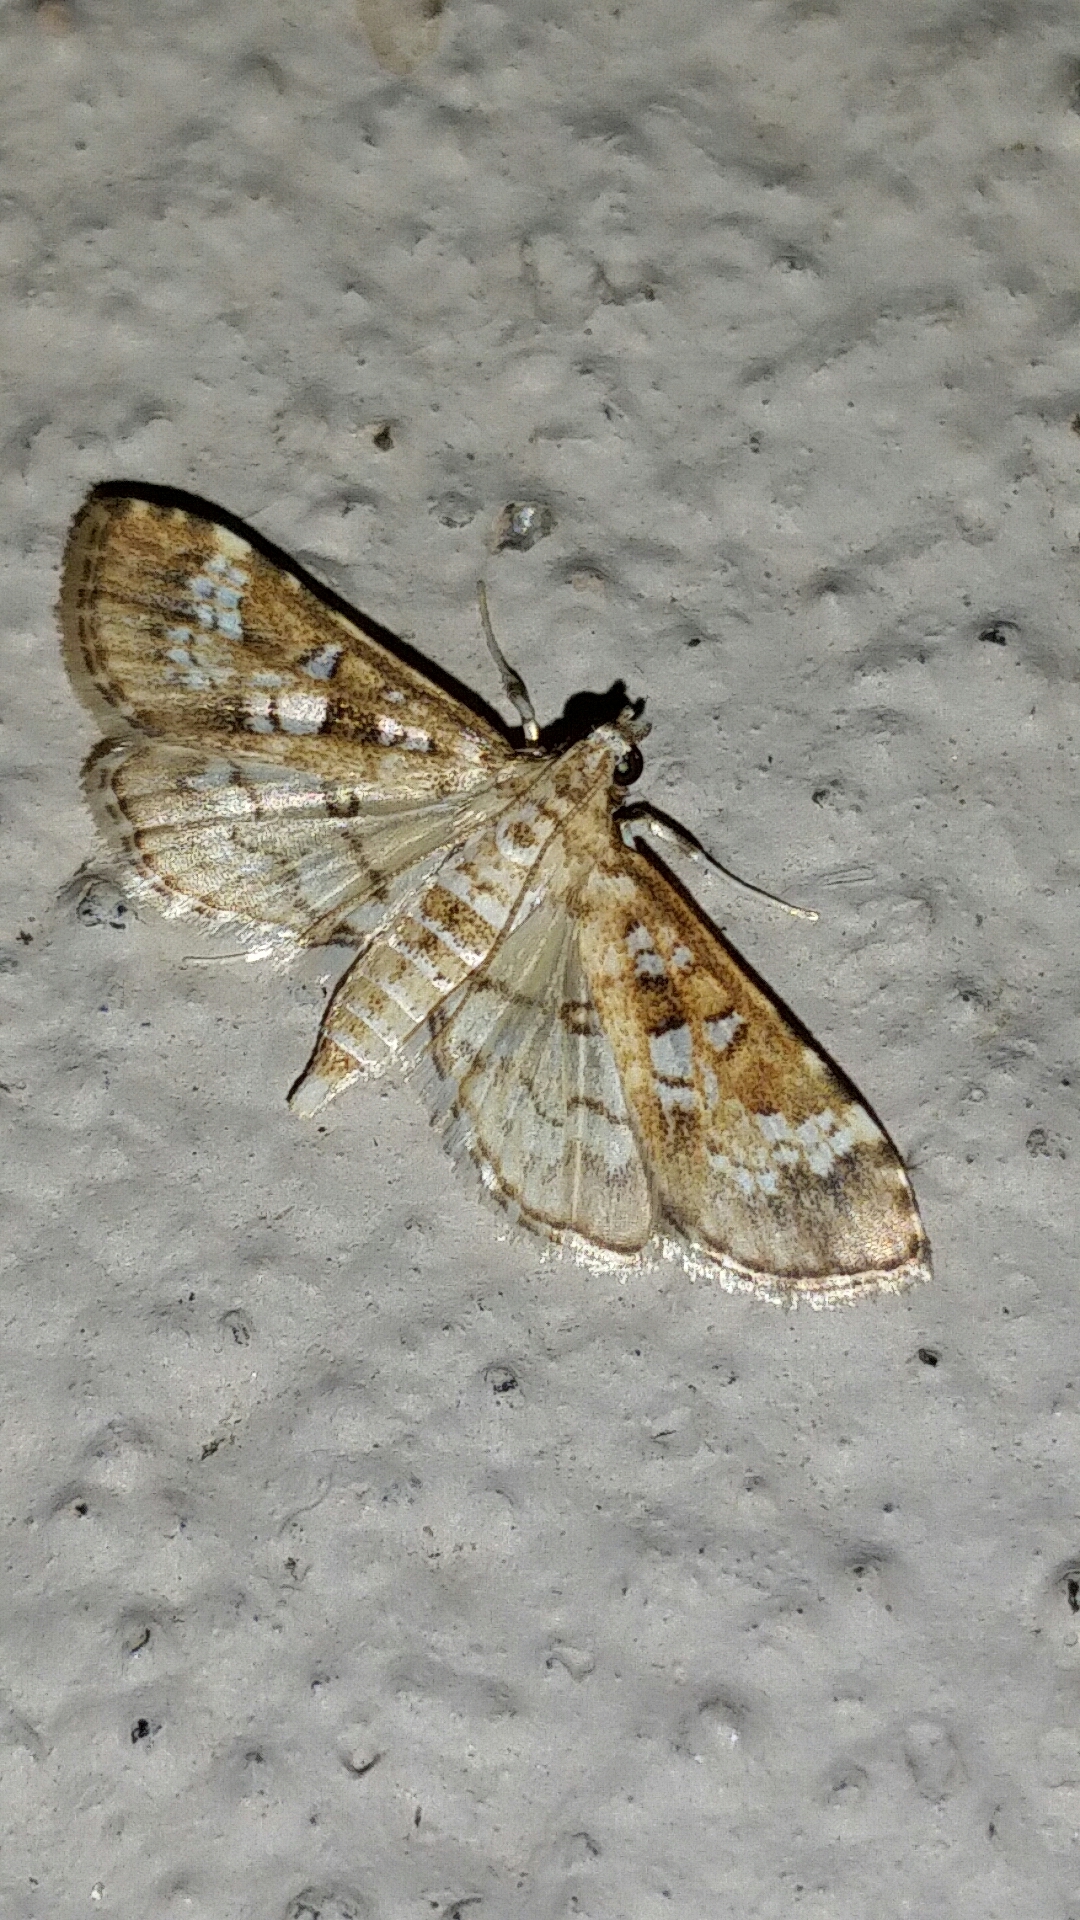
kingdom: Animalia
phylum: Arthropoda
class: Insecta
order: Lepidoptera
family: Crambidae
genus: Samea
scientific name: Samea multiplicalis
